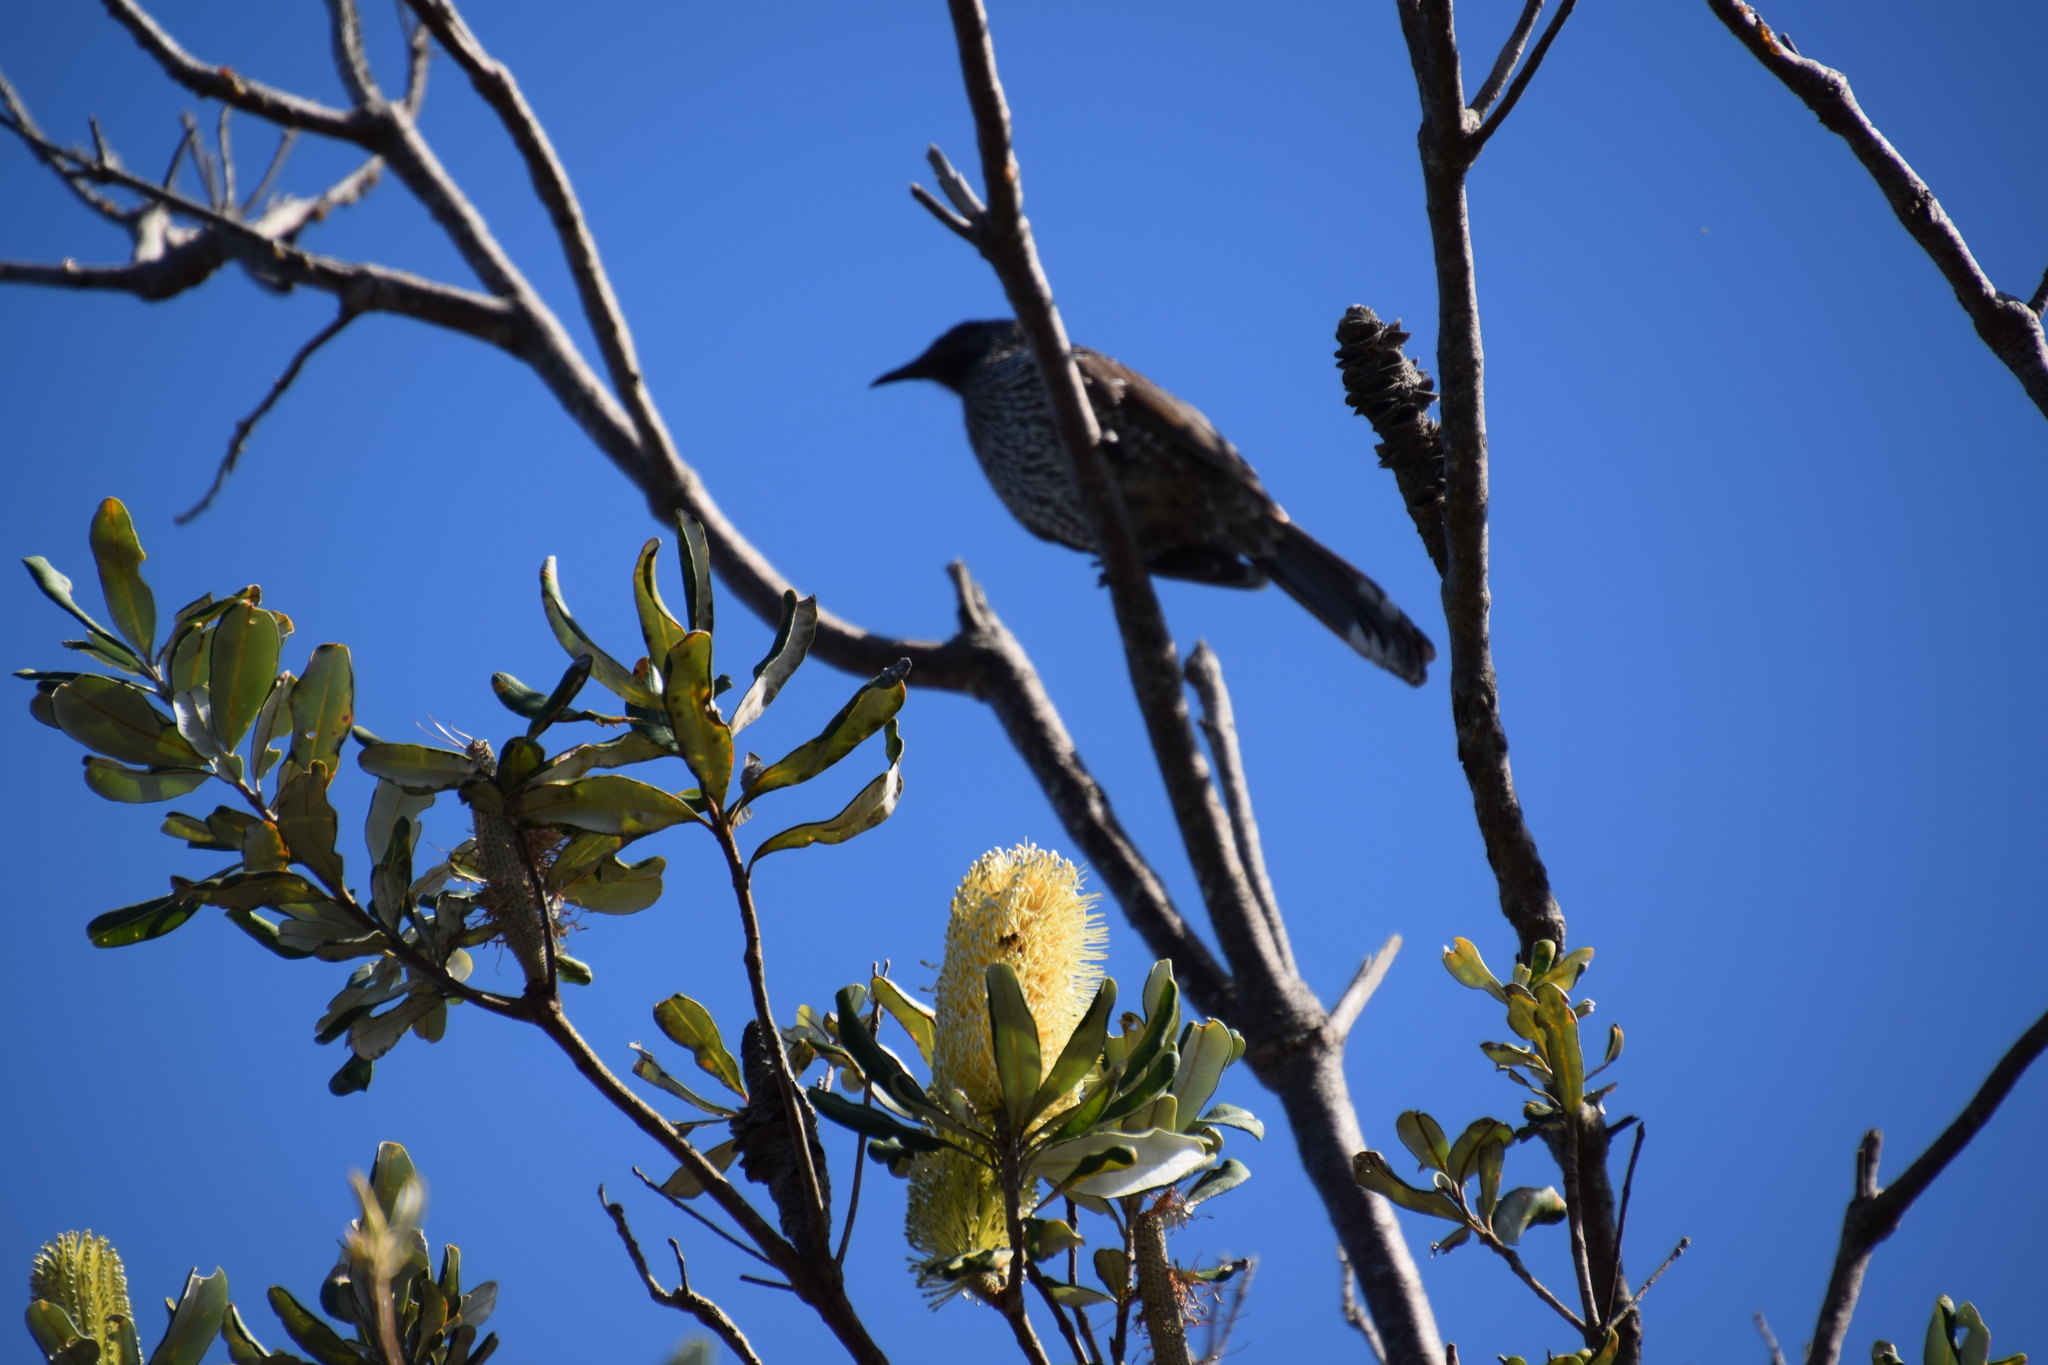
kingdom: Animalia
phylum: Chordata
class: Aves
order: Passeriformes
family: Meliphagidae
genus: Anthochaera
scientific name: Anthochaera chrysoptera
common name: Little wattlebird
